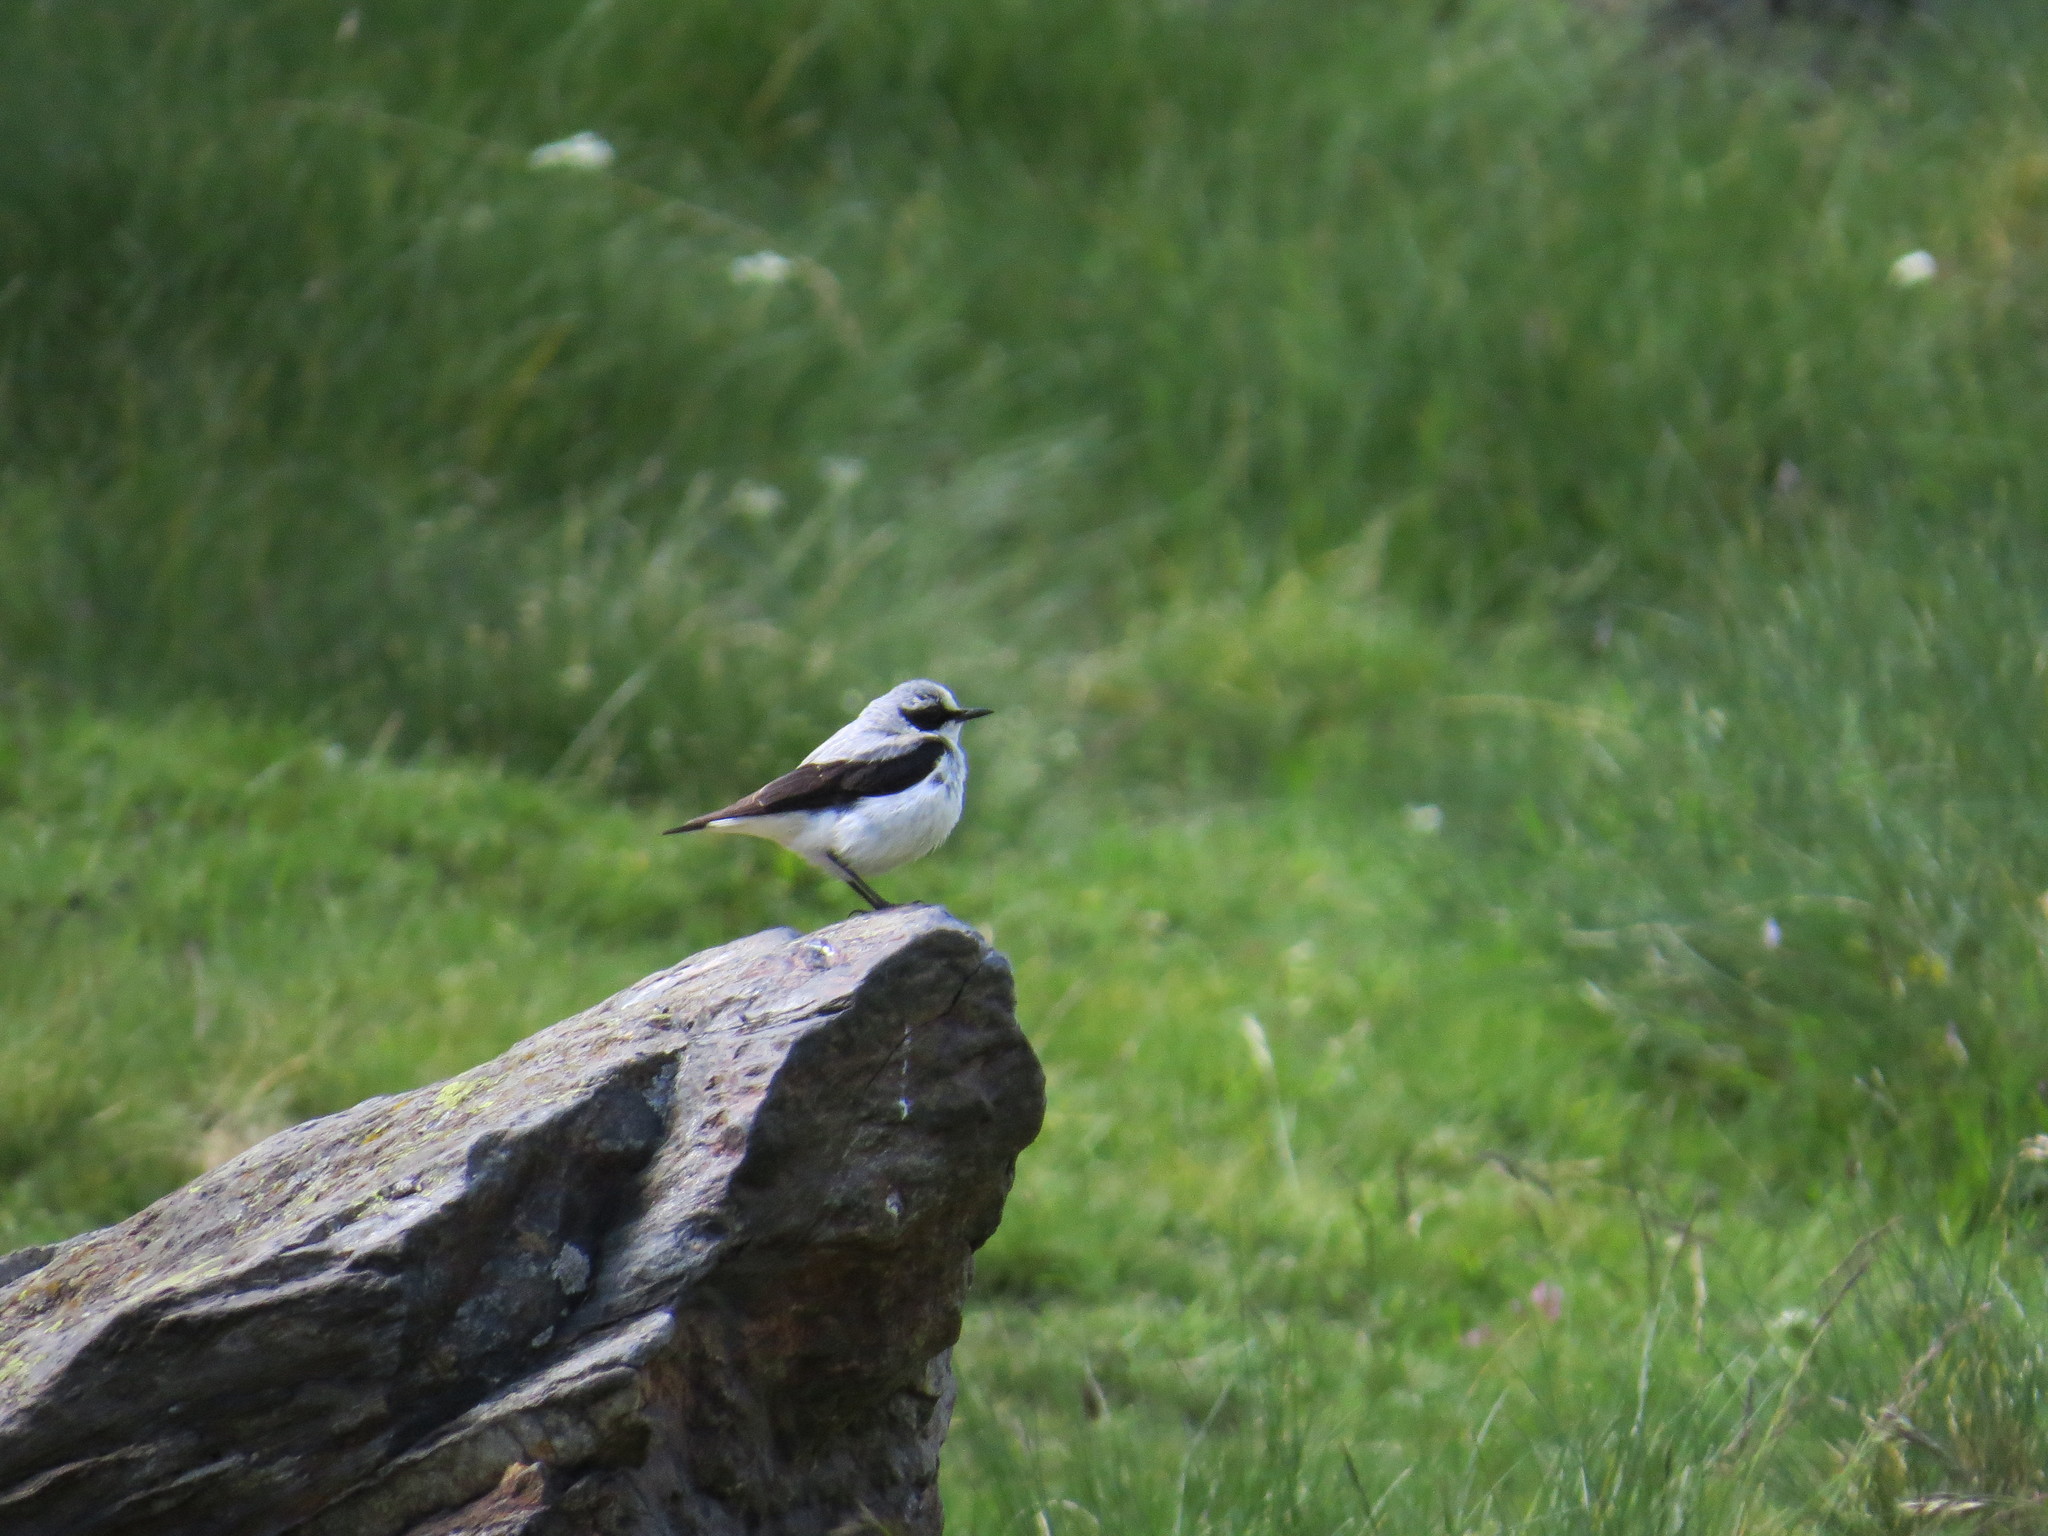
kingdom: Animalia
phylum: Chordata
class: Aves
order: Passeriformes
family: Muscicapidae
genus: Oenanthe
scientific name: Oenanthe oenanthe
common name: Northern wheatear
